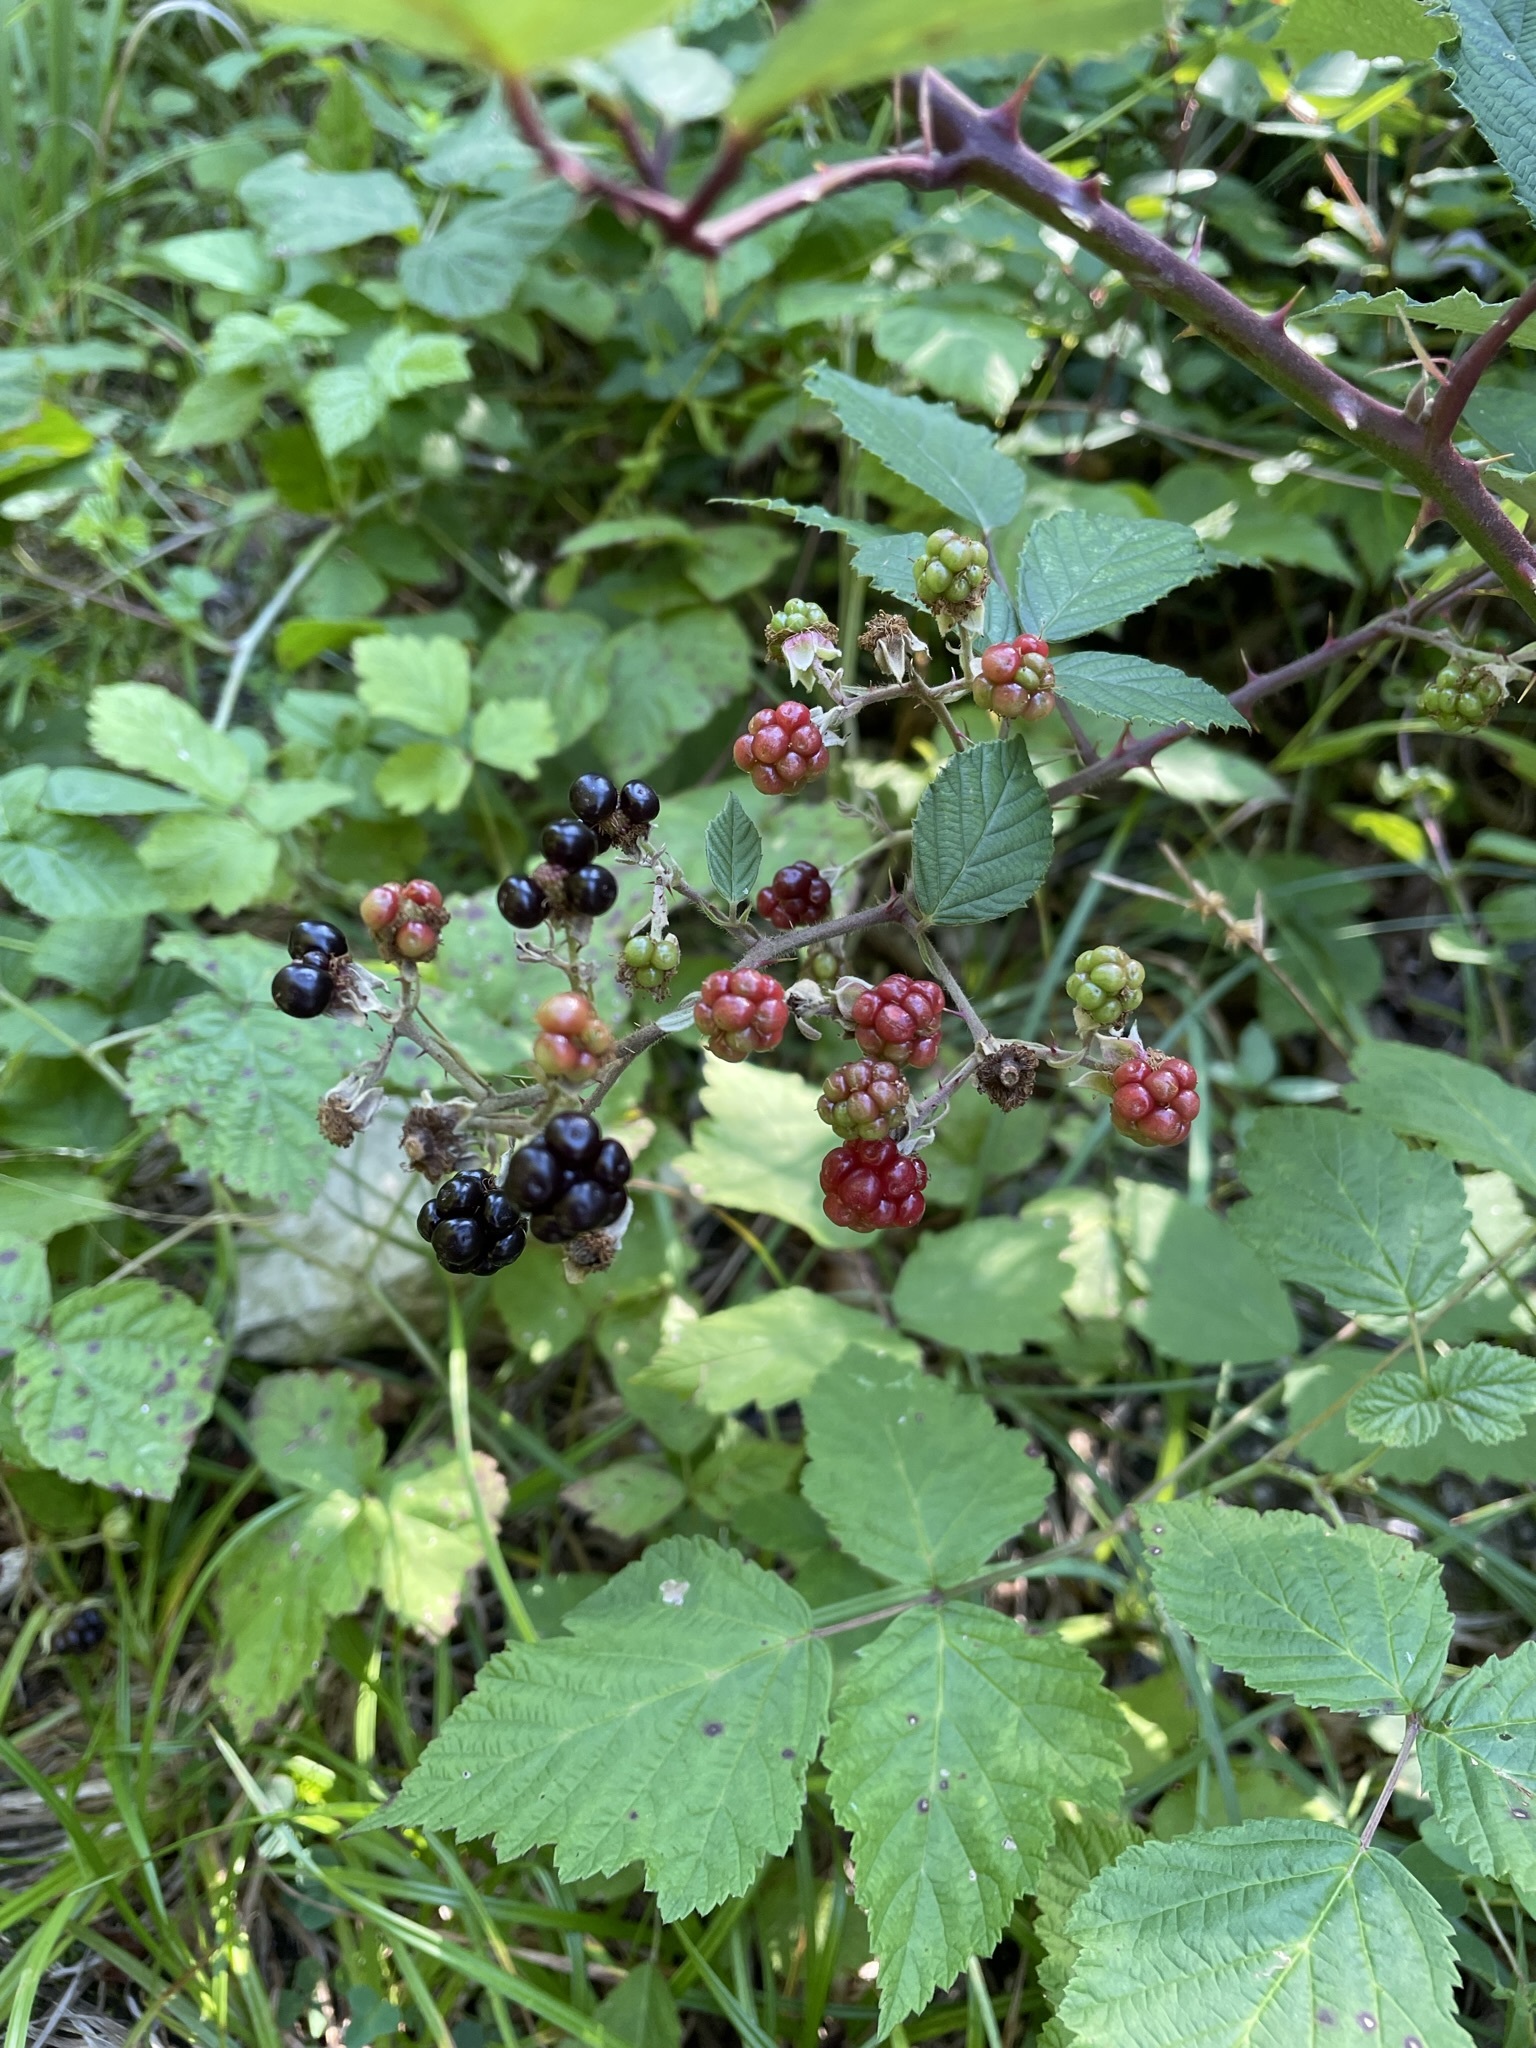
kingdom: Plantae
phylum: Tracheophyta
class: Magnoliopsida
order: Rosales
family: Rosaceae
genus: Rubus
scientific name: Rubus
